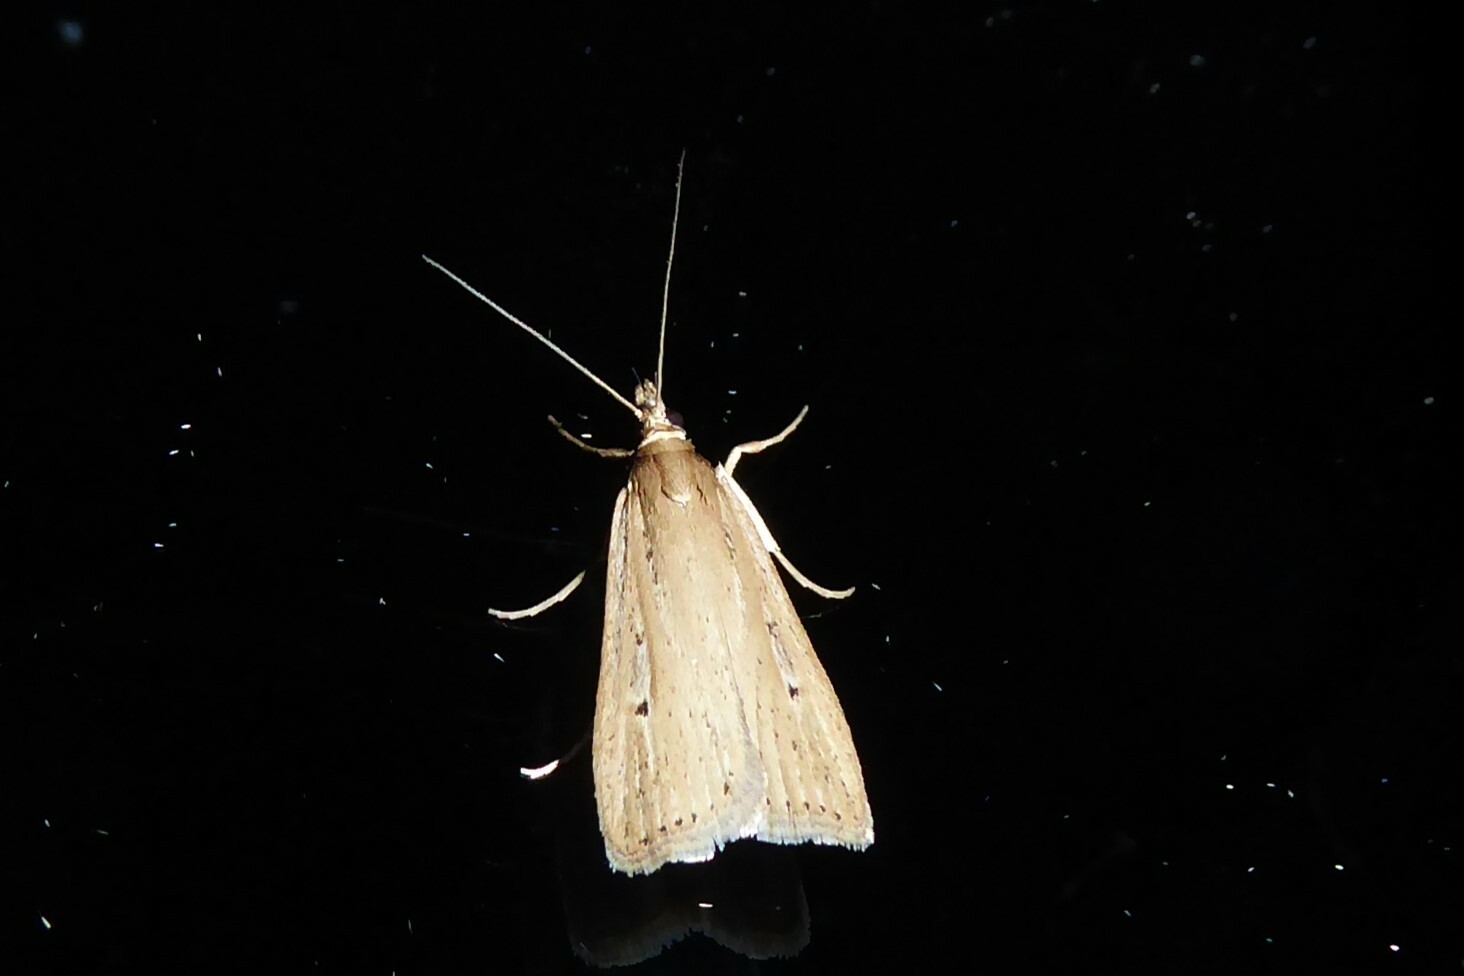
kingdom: Animalia
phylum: Arthropoda
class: Insecta
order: Lepidoptera
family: Crambidae
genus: Eudonia
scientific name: Eudonia sabulosella
